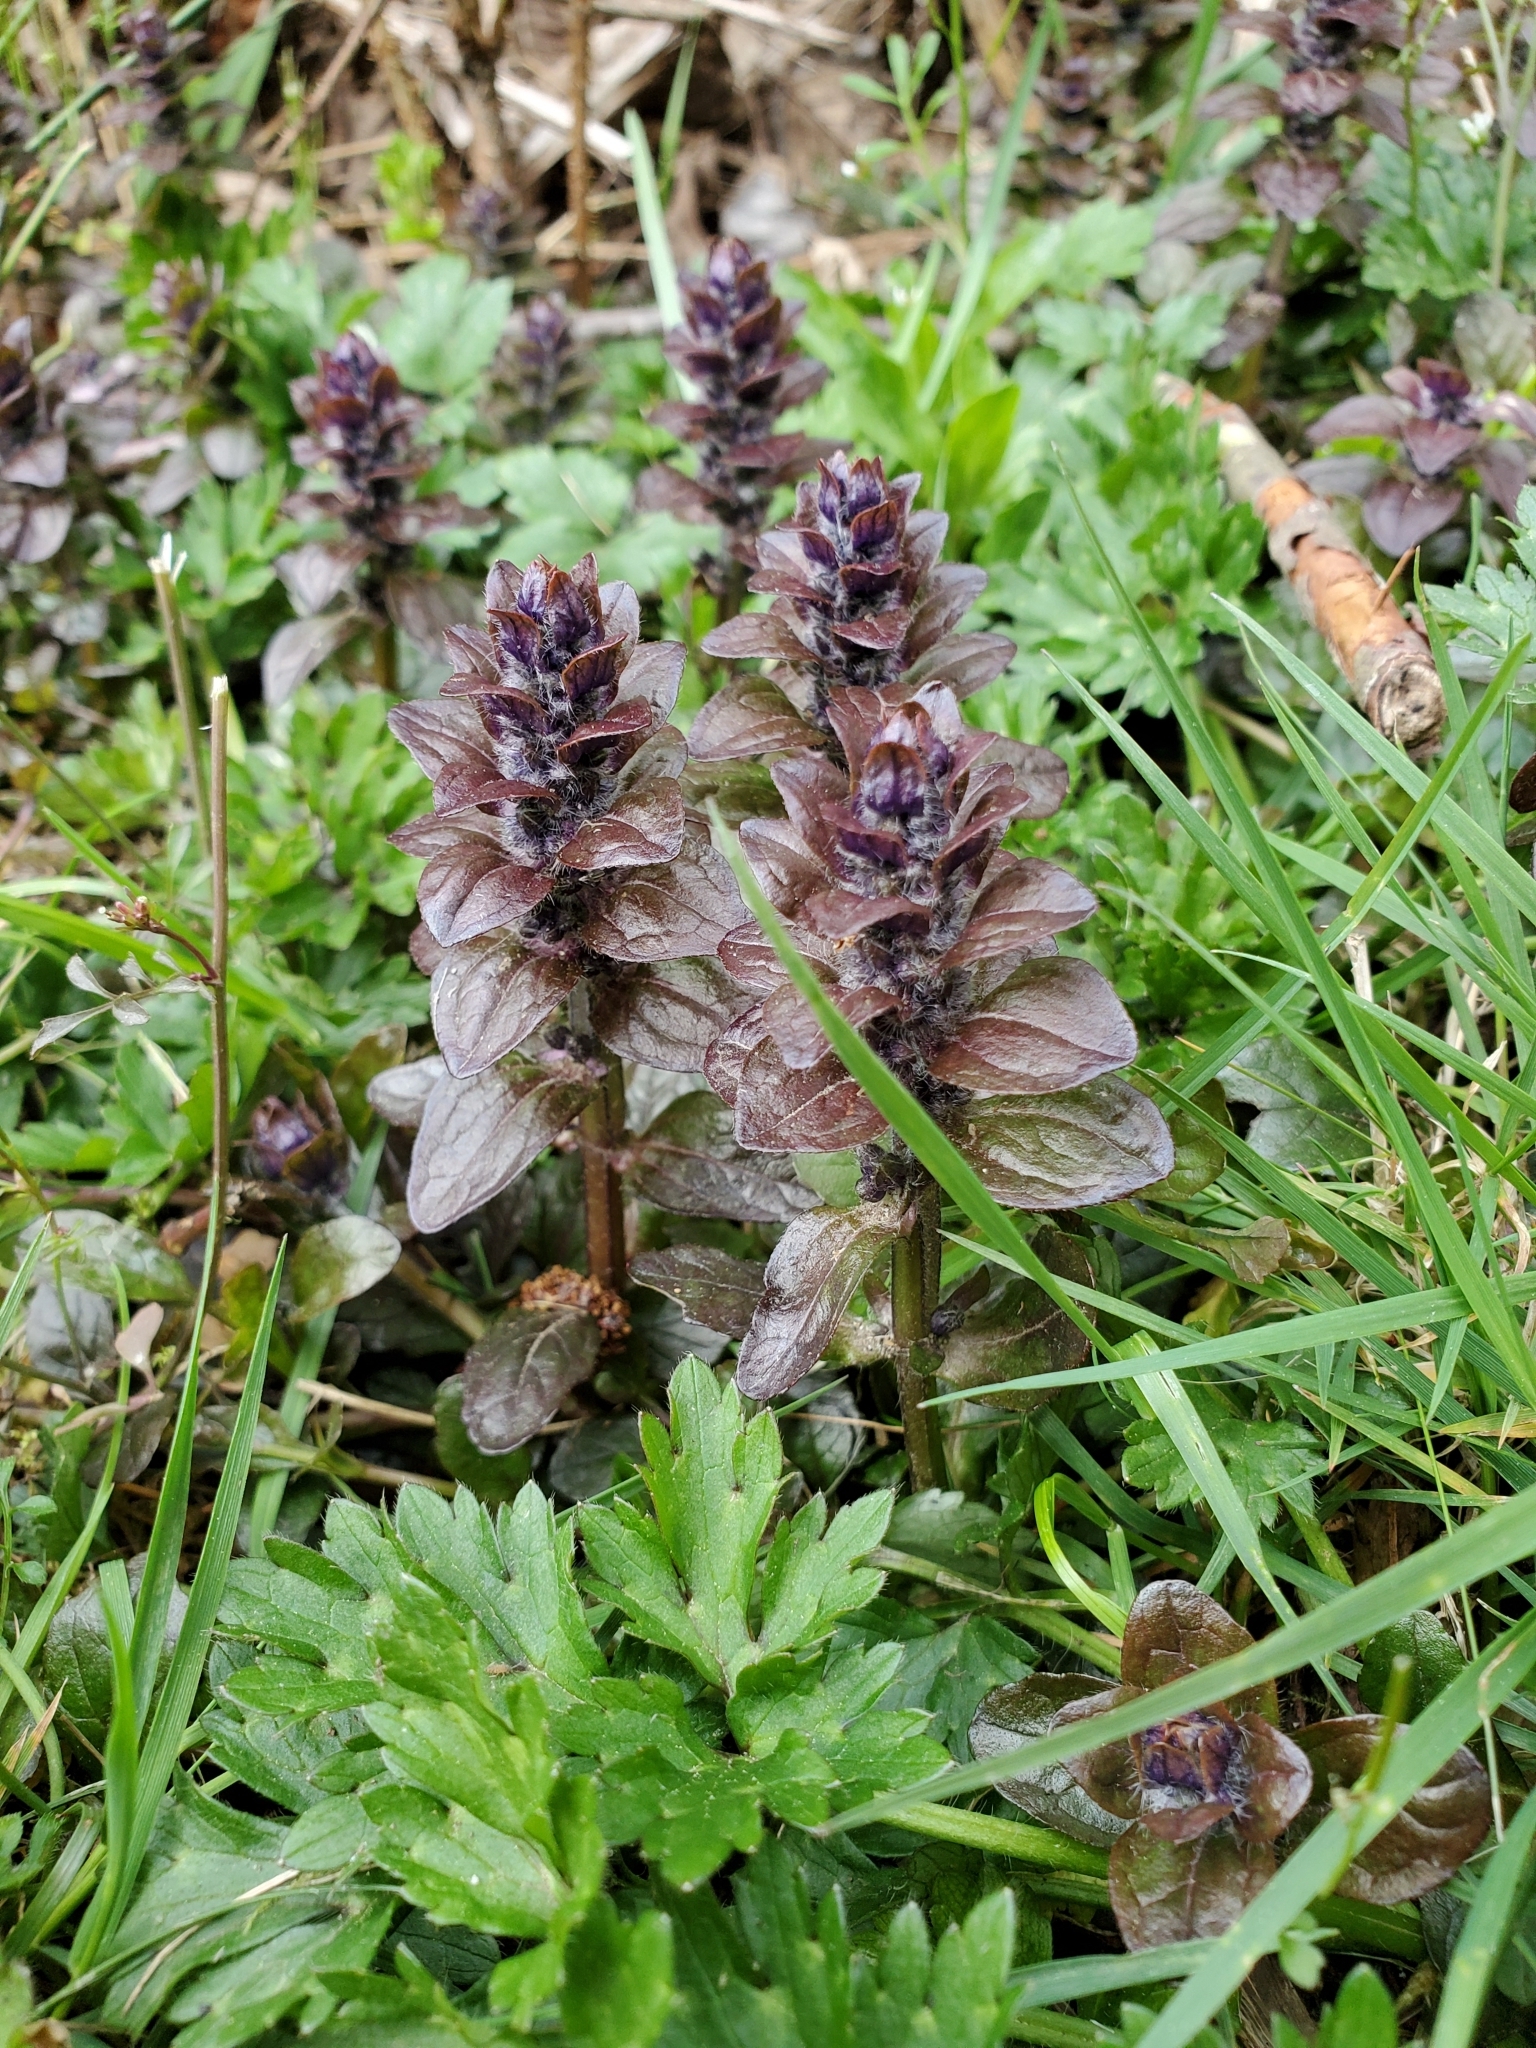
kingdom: Plantae
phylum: Tracheophyta
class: Magnoliopsida
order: Lamiales
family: Lamiaceae
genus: Ajuga
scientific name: Ajuga reptans
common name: Bugle
